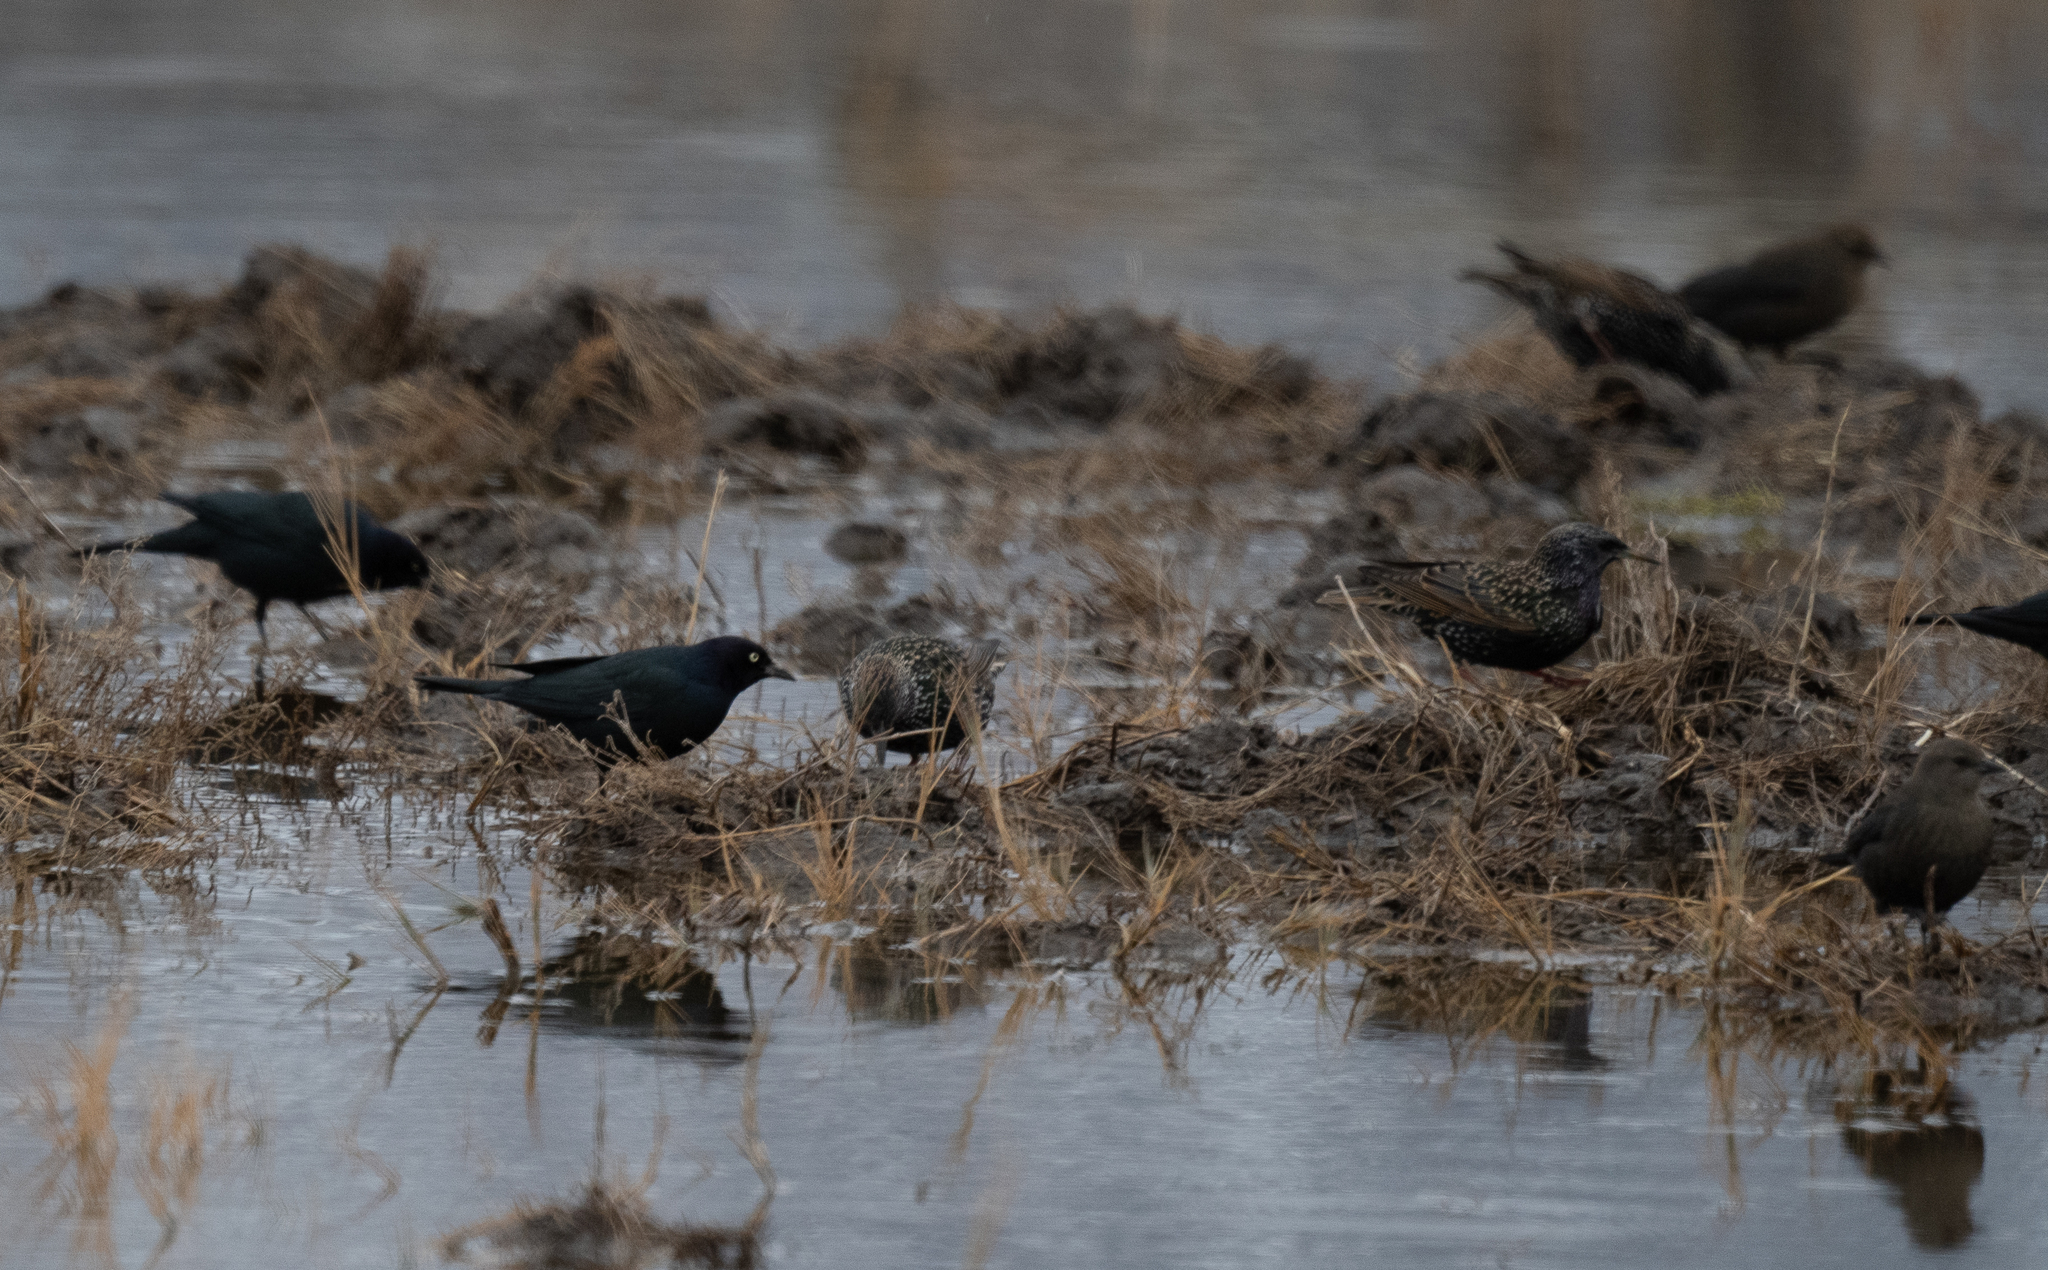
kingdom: Animalia
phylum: Chordata
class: Aves
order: Passeriformes
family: Icteridae
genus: Euphagus
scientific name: Euphagus cyanocephalus
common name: Brewer's blackbird
